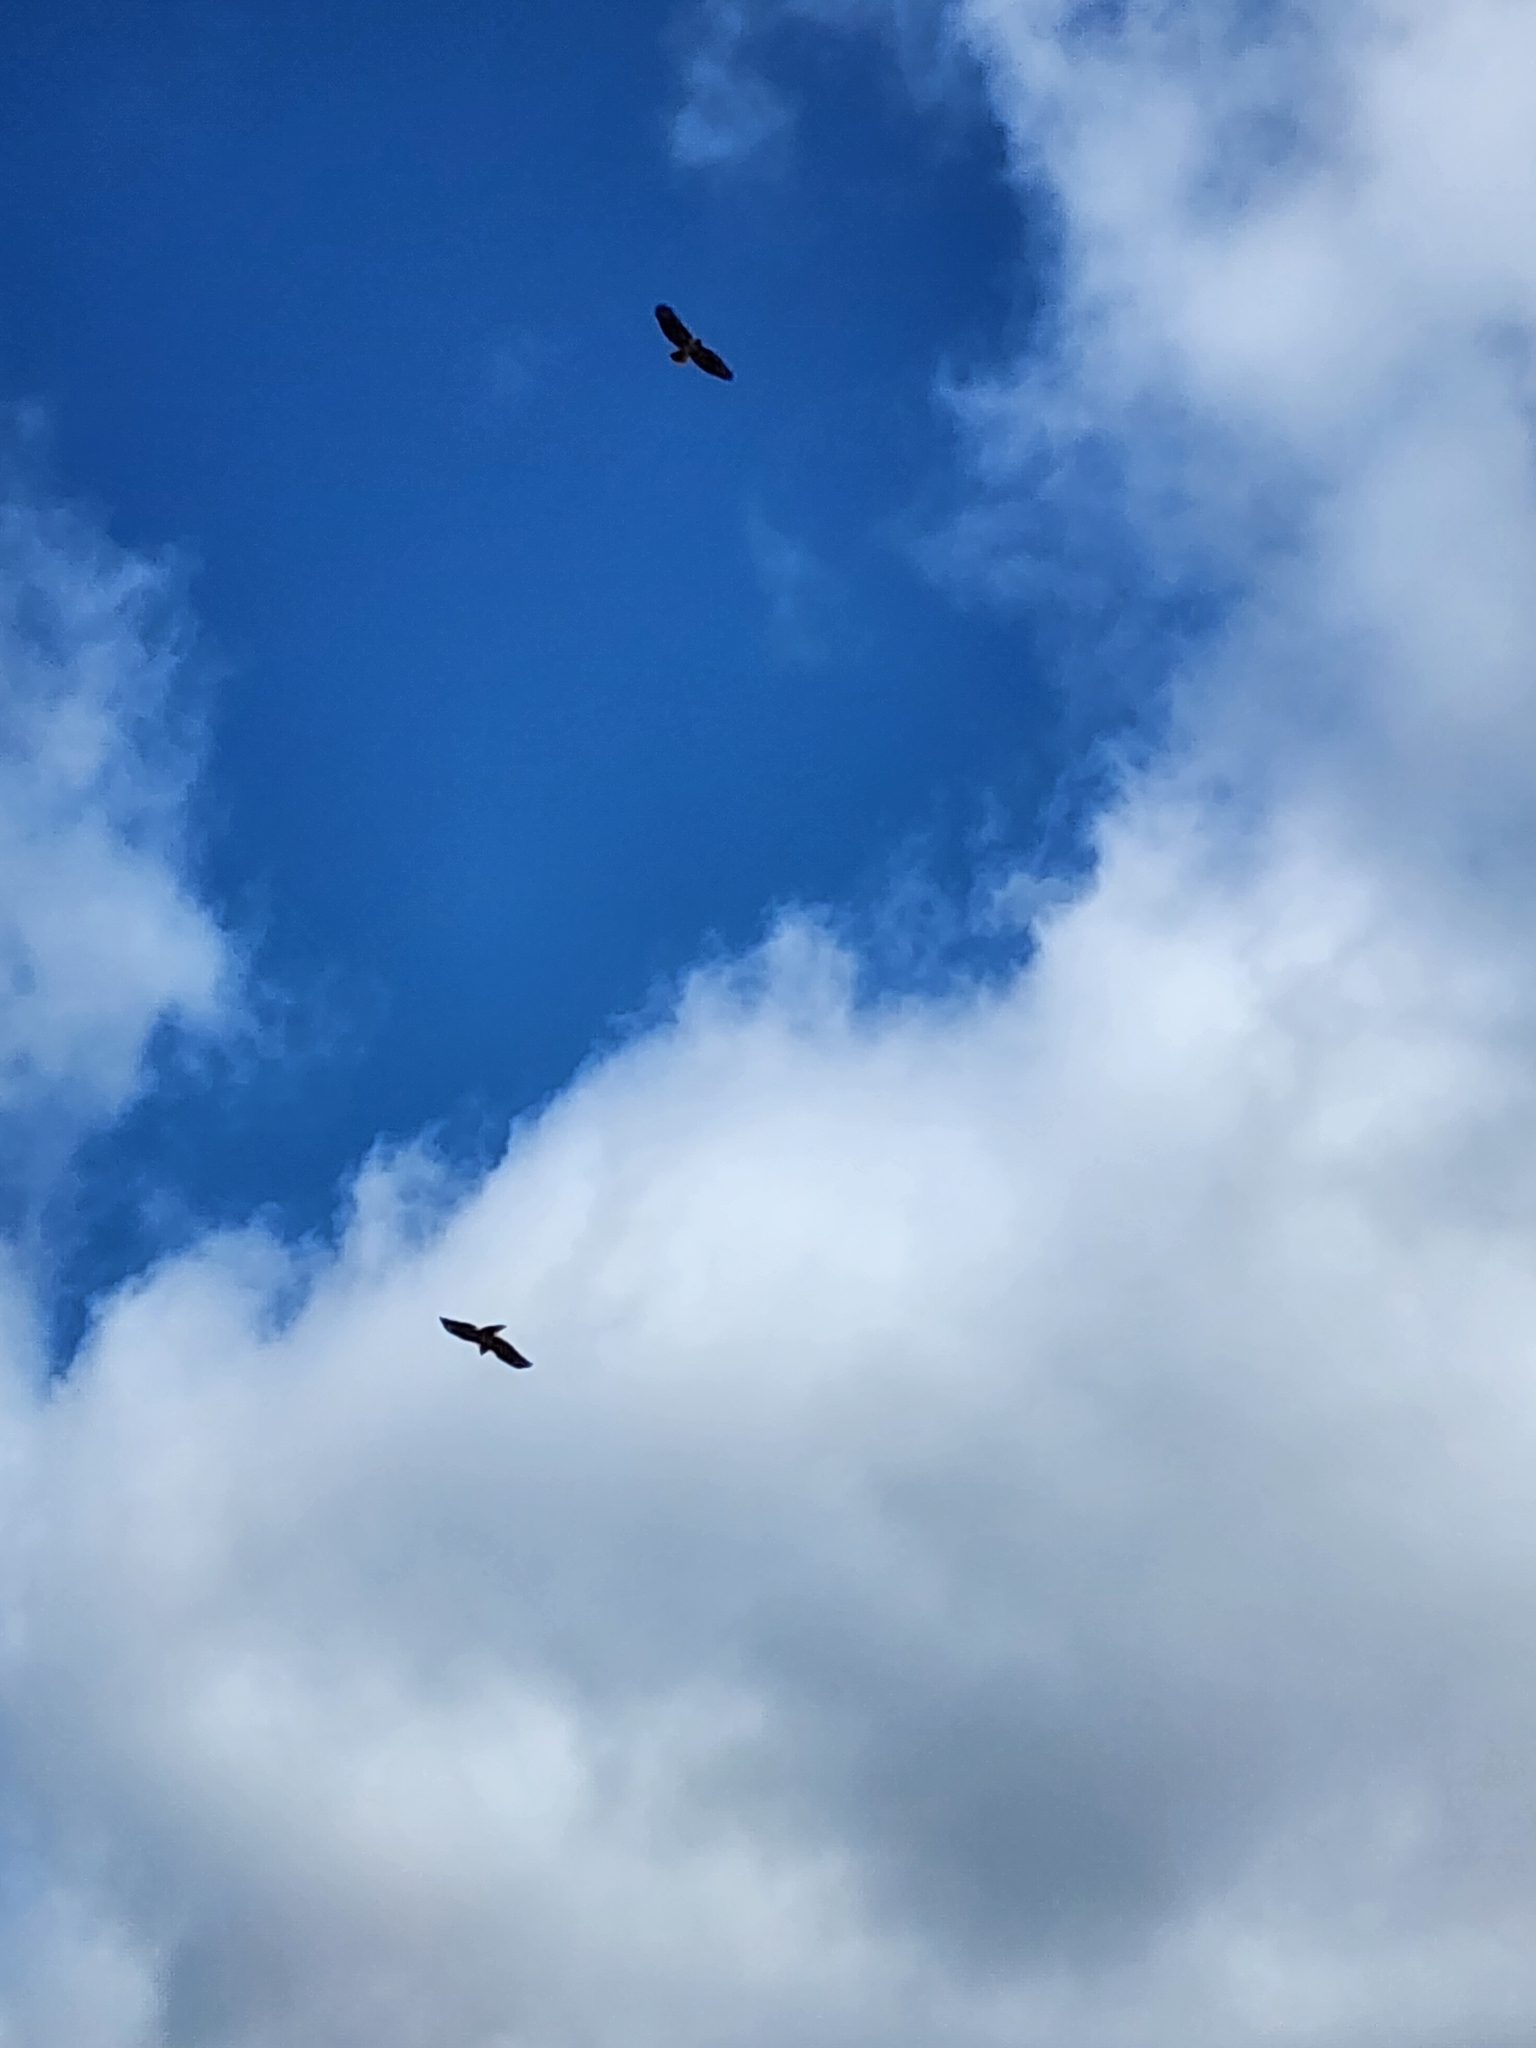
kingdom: Animalia
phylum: Chordata
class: Aves
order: Accipitriformes
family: Accipitridae
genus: Buteo
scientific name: Buteo jamaicensis
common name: Red-tailed hawk
